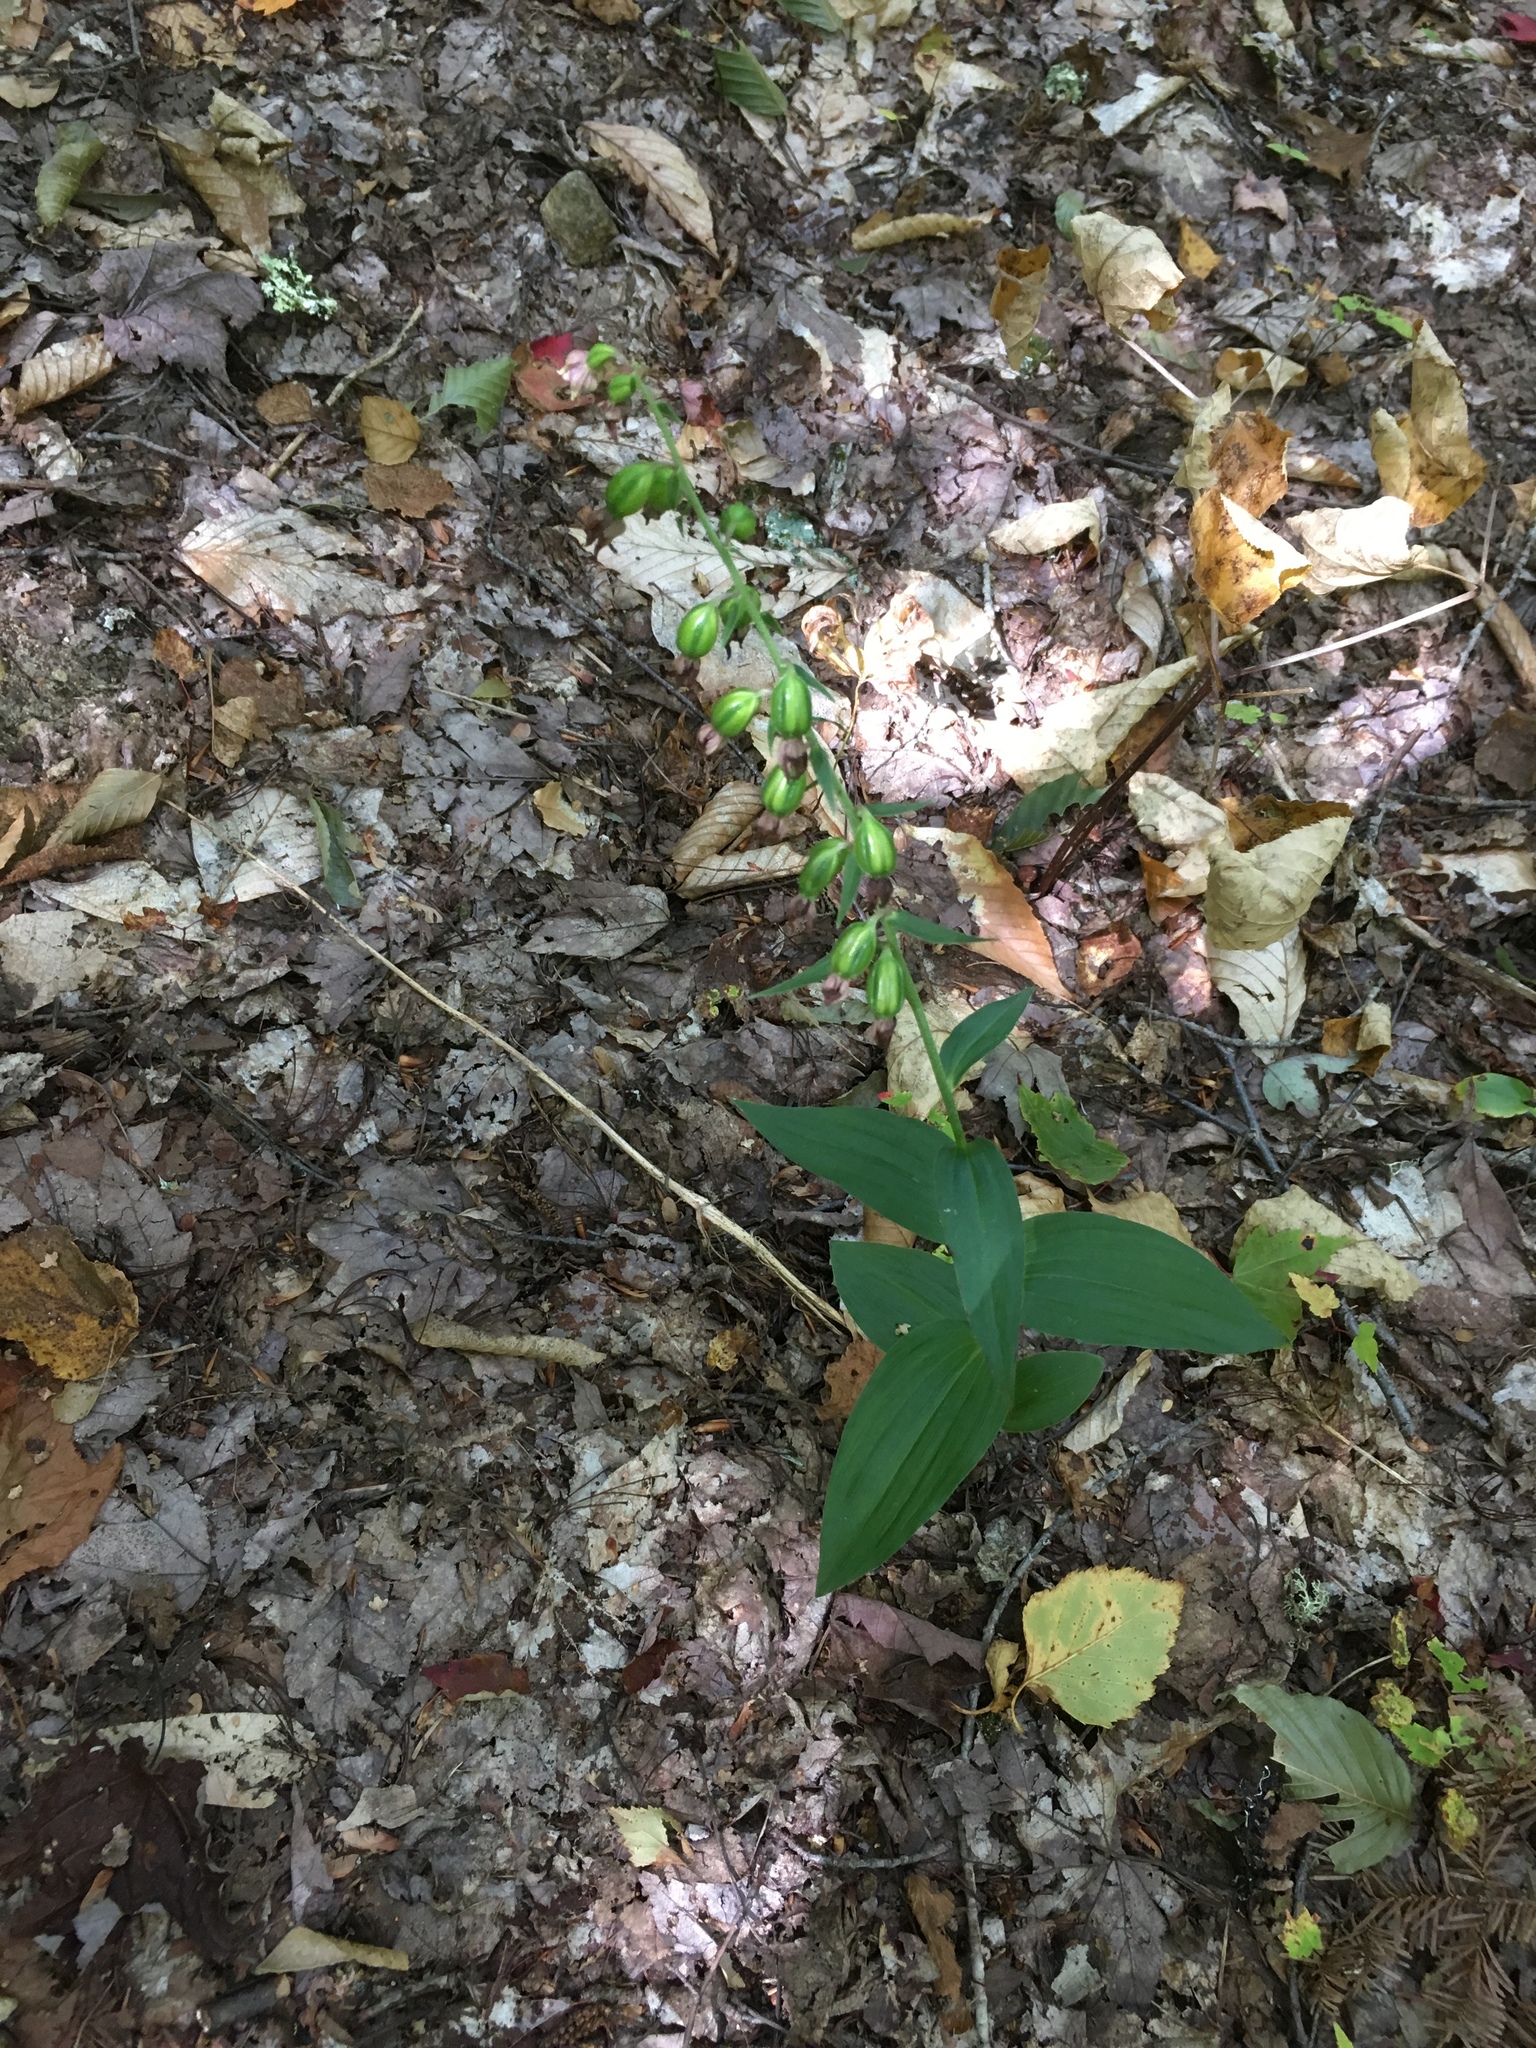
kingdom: Plantae
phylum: Tracheophyta
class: Liliopsida
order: Asparagales
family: Orchidaceae
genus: Epipactis
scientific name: Epipactis helleborine
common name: Broad-leaved helleborine
